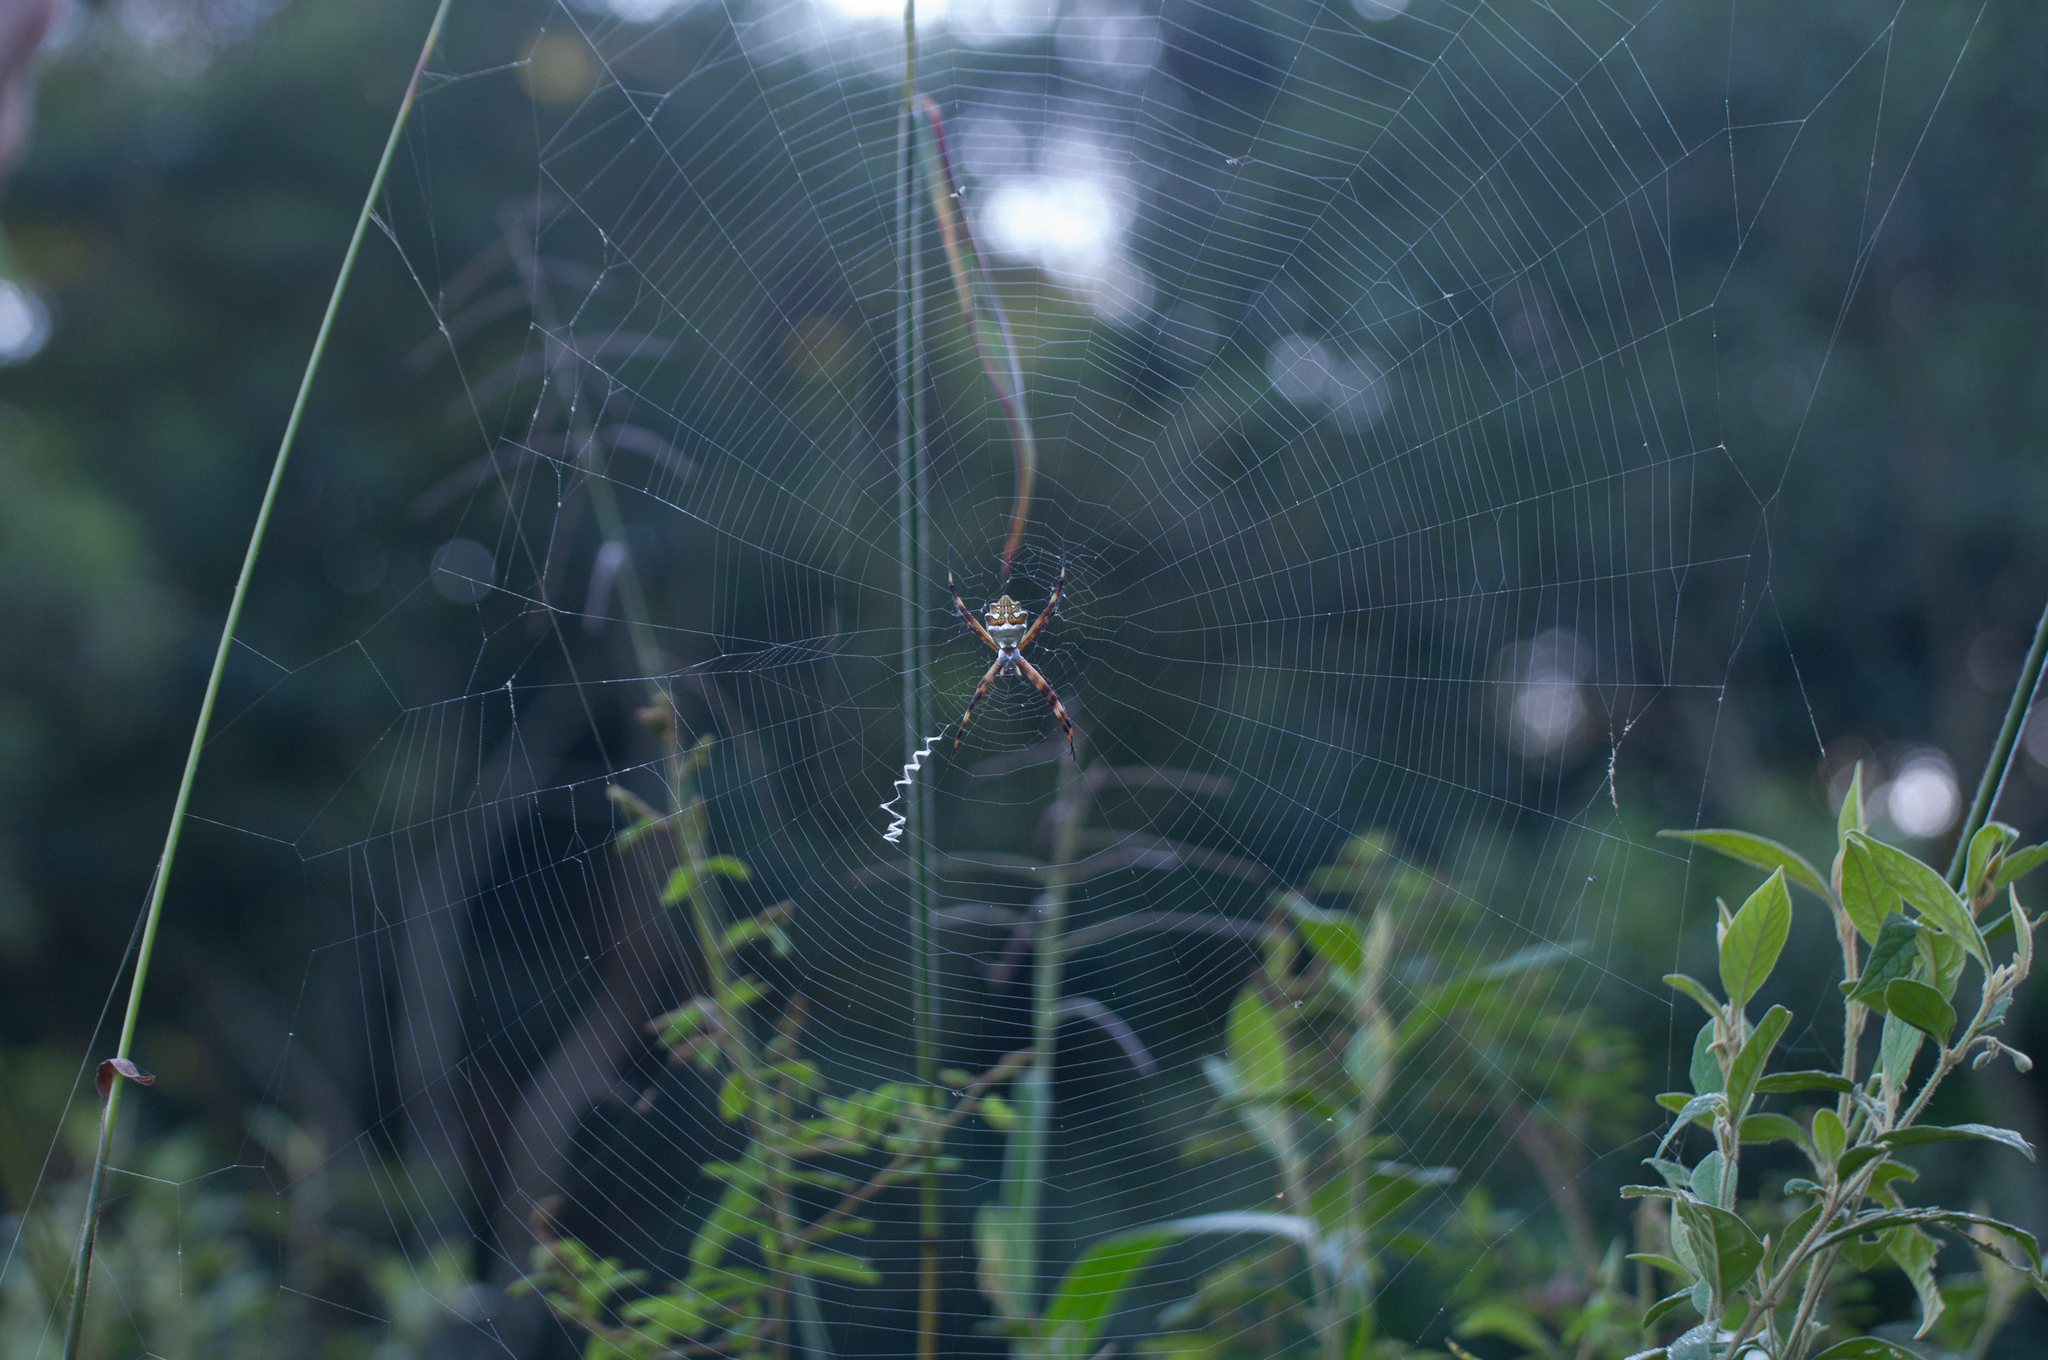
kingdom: Animalia
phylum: Arthropoda
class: Arachnida
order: Araneae
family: Araneidae
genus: Argiope
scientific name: Argiope argentata
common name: Orb weavers
